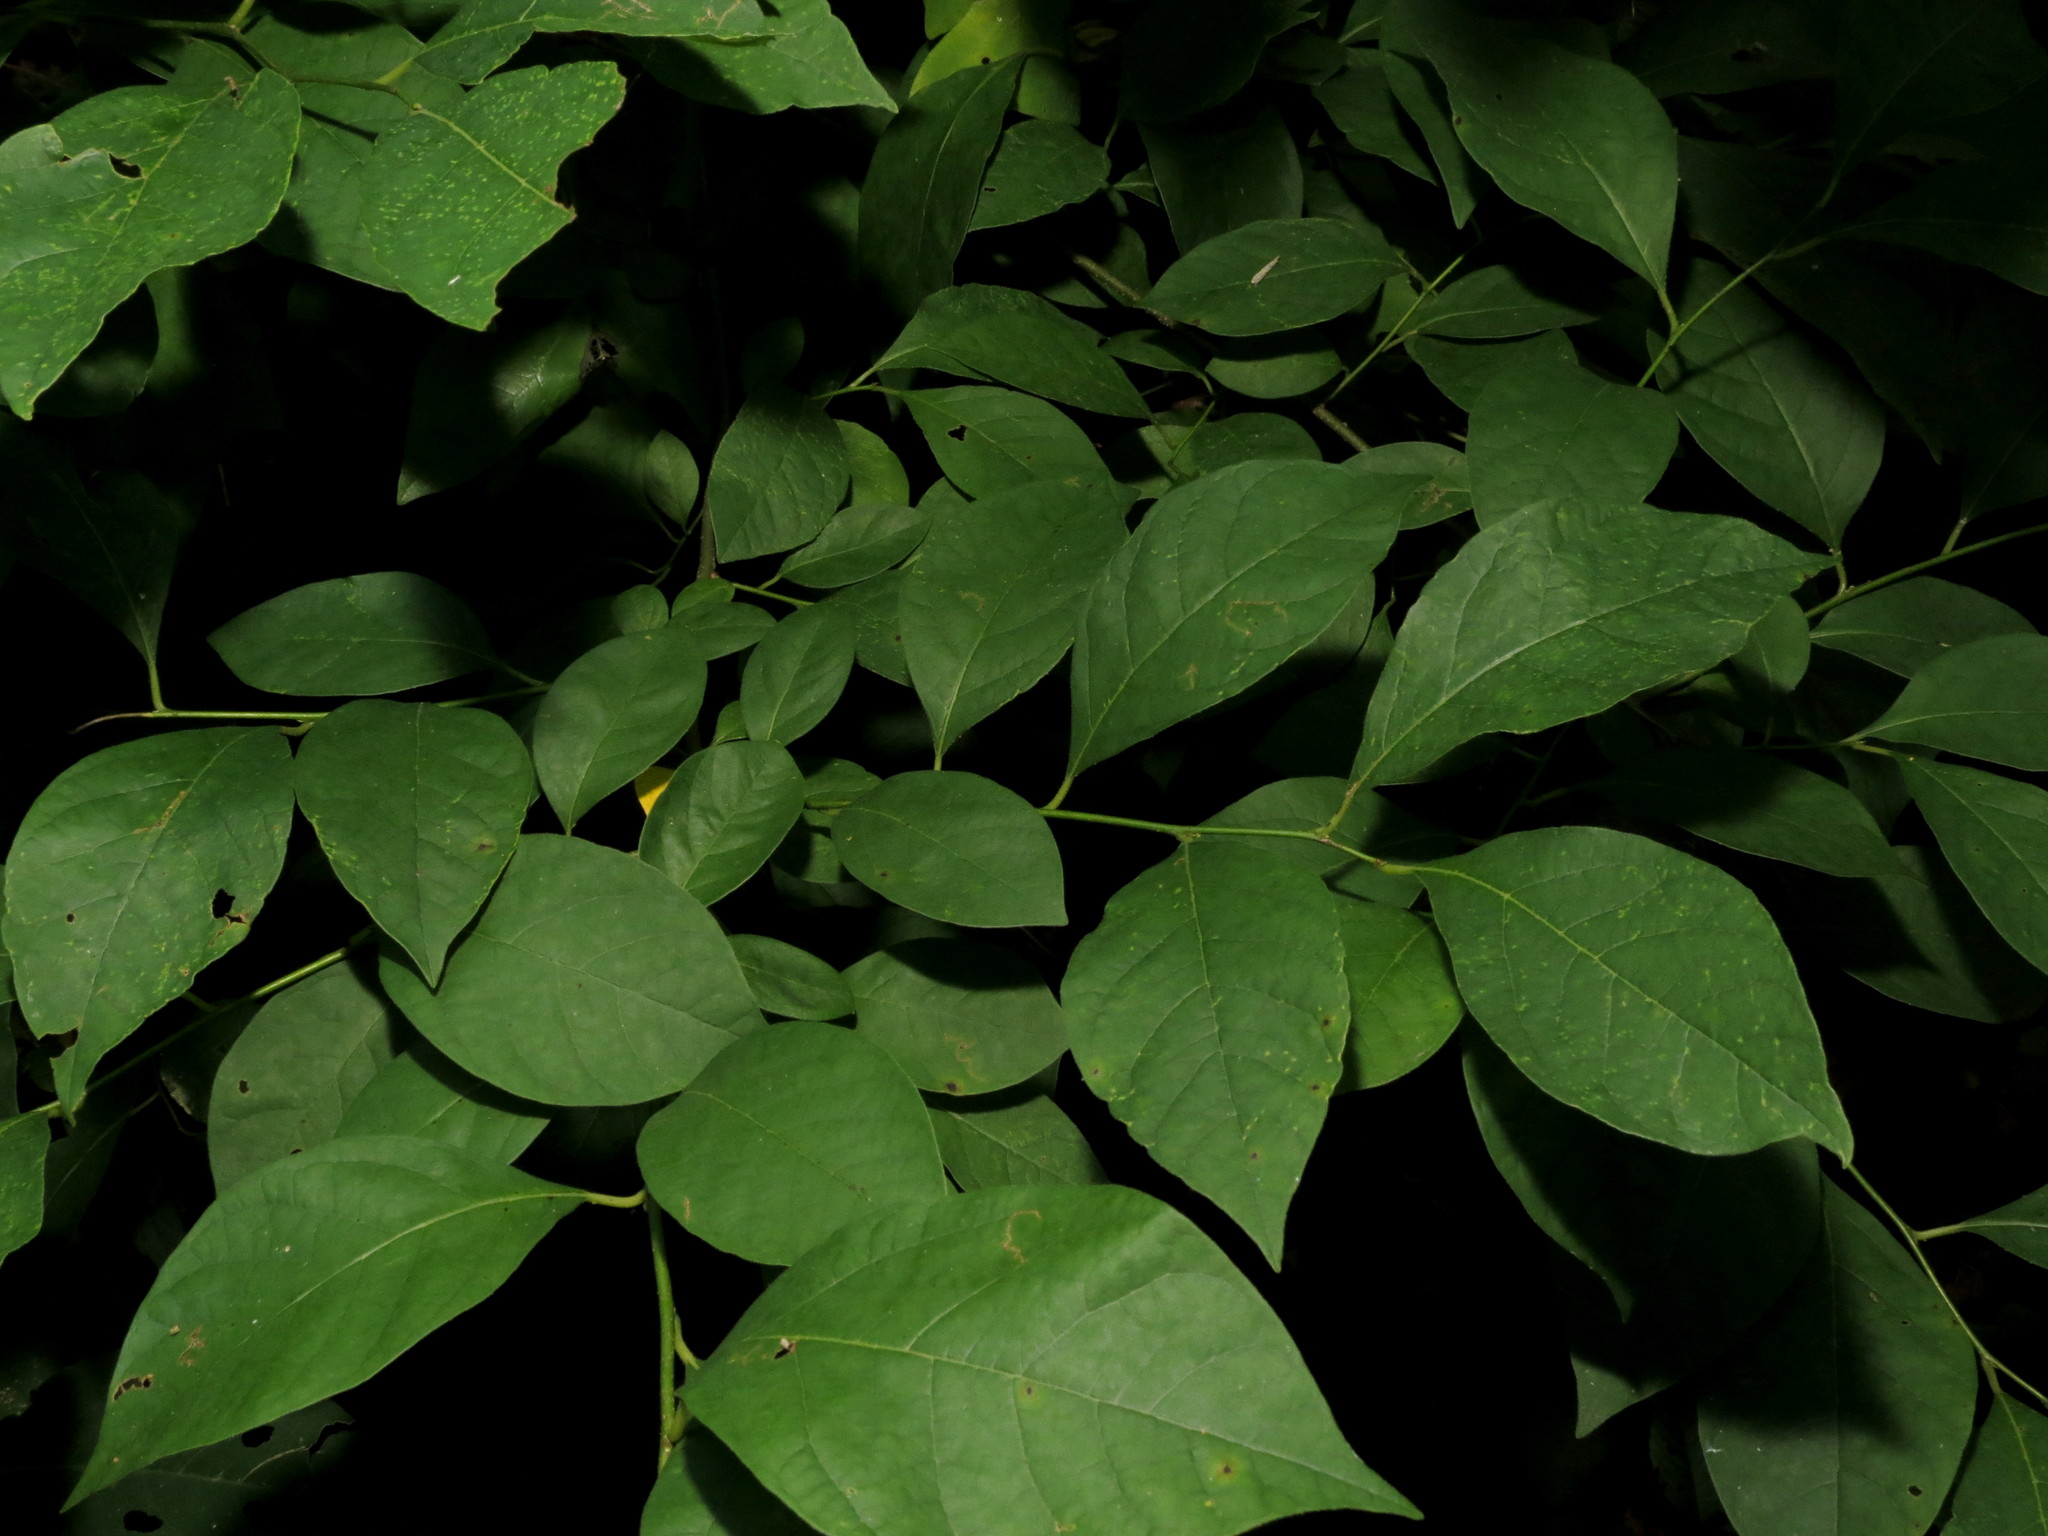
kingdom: Plantae
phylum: Tracheophyta
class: Magnoliopsida
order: Laurales
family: Lauraceae
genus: Lindera
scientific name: Lindera benzoin
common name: Spicebush
